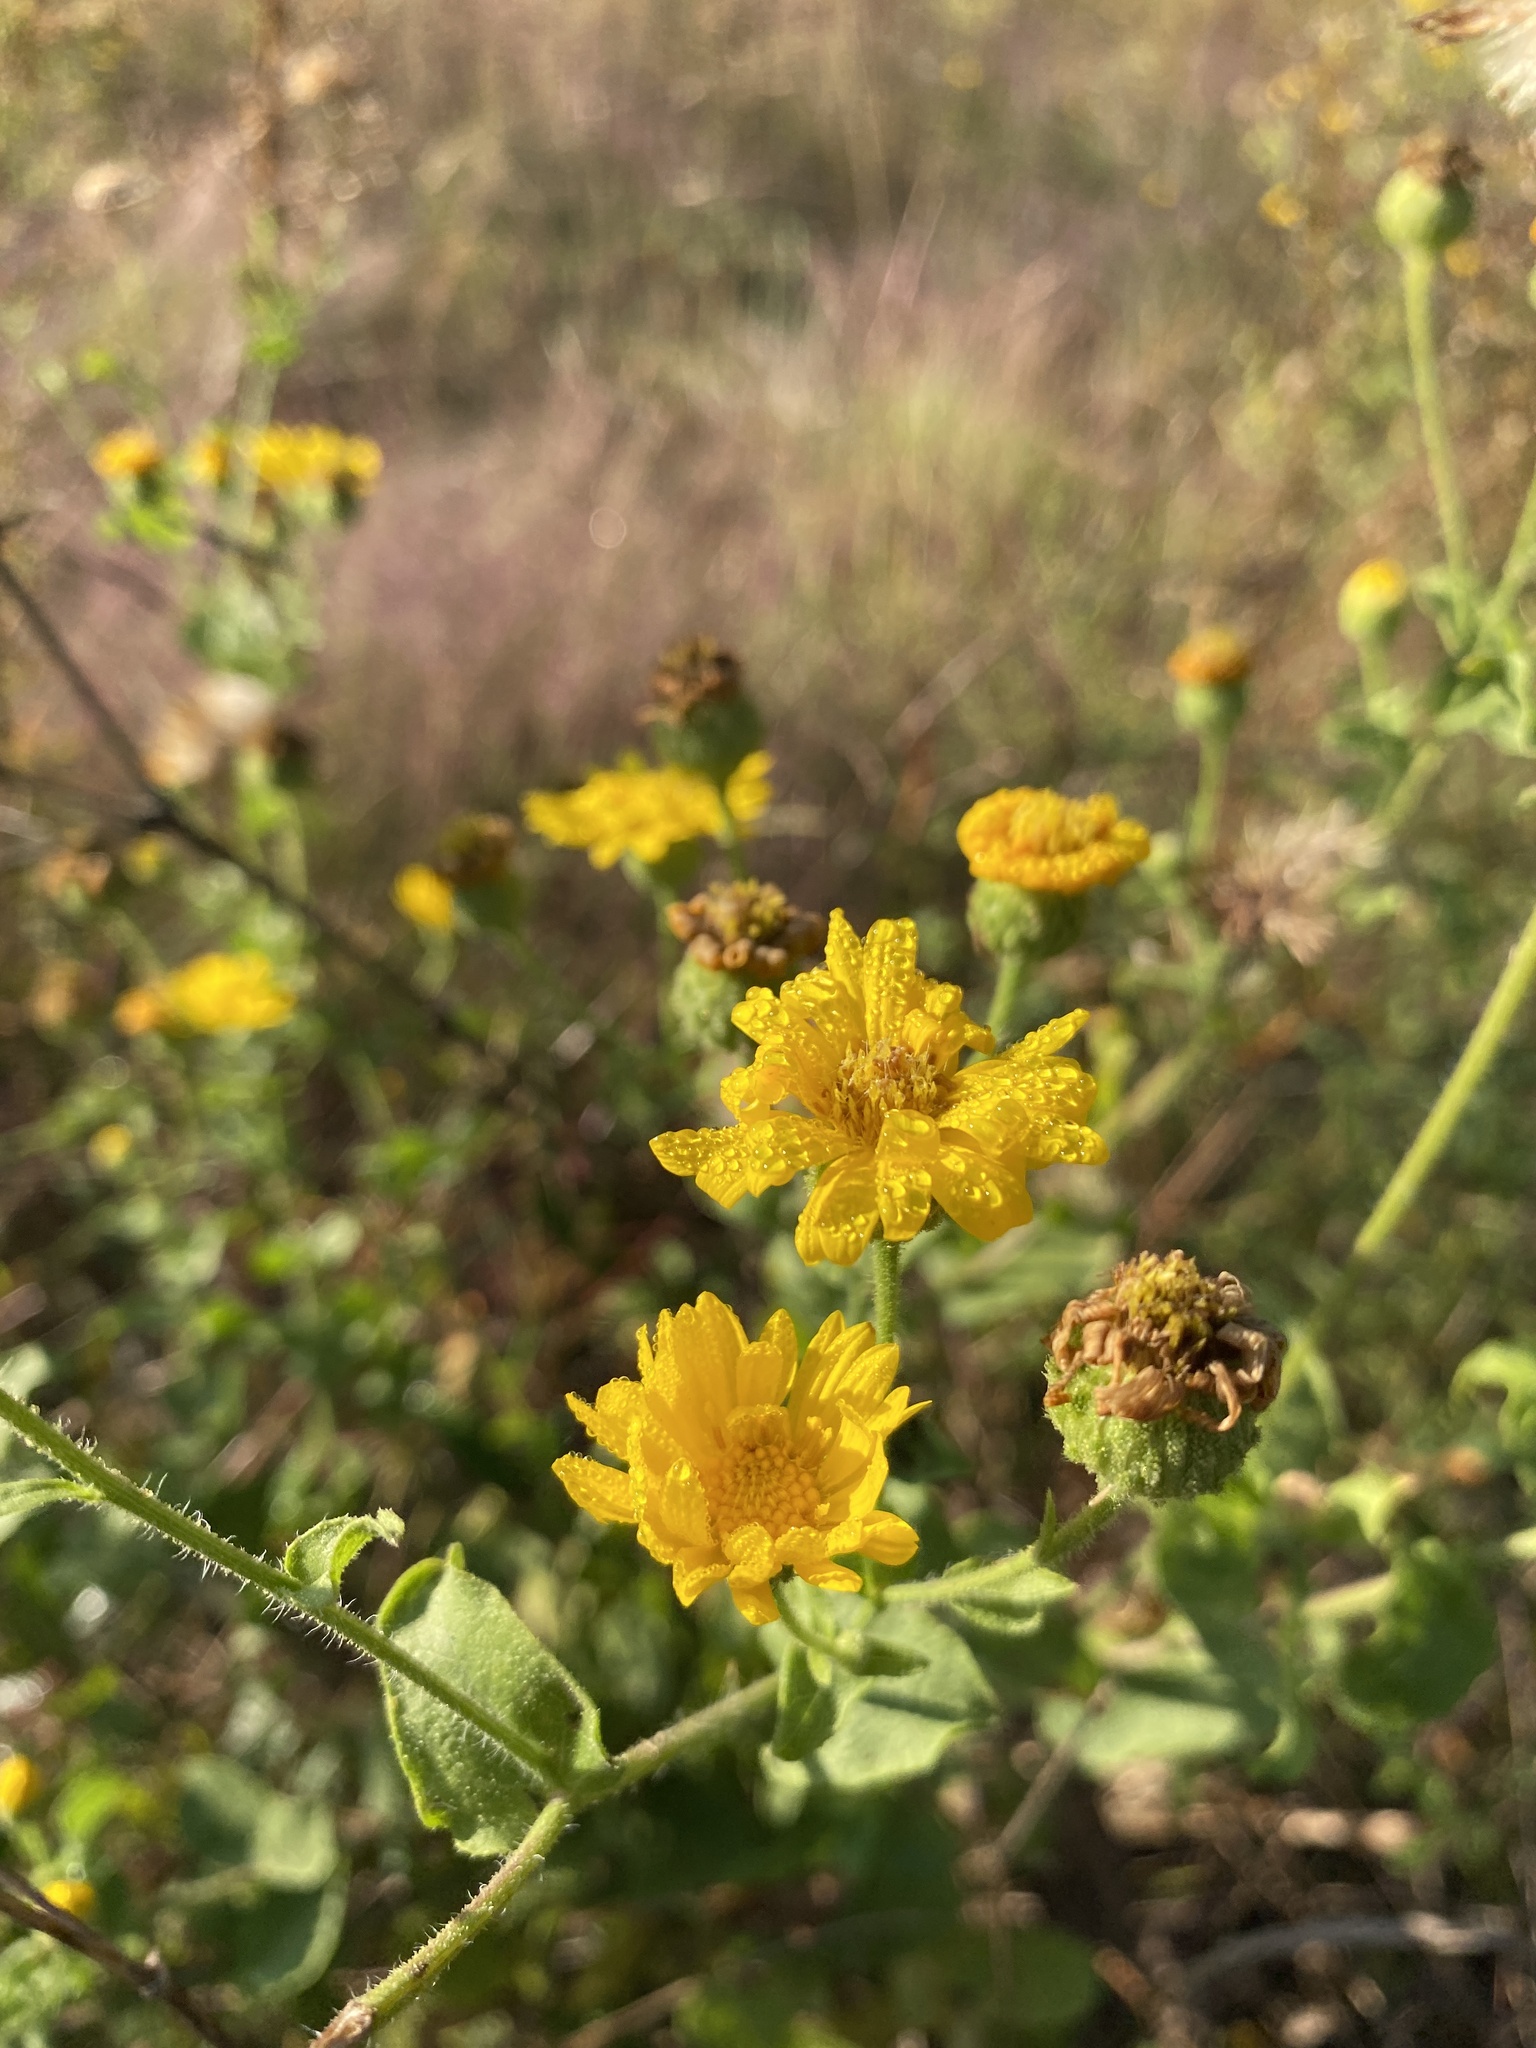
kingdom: Plantae
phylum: Tracheophyta
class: Magnoliopsida
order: Asterales
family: Asteraceae
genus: Heterotheca
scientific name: Heterotheca subaxillaris
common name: Camphorweed
